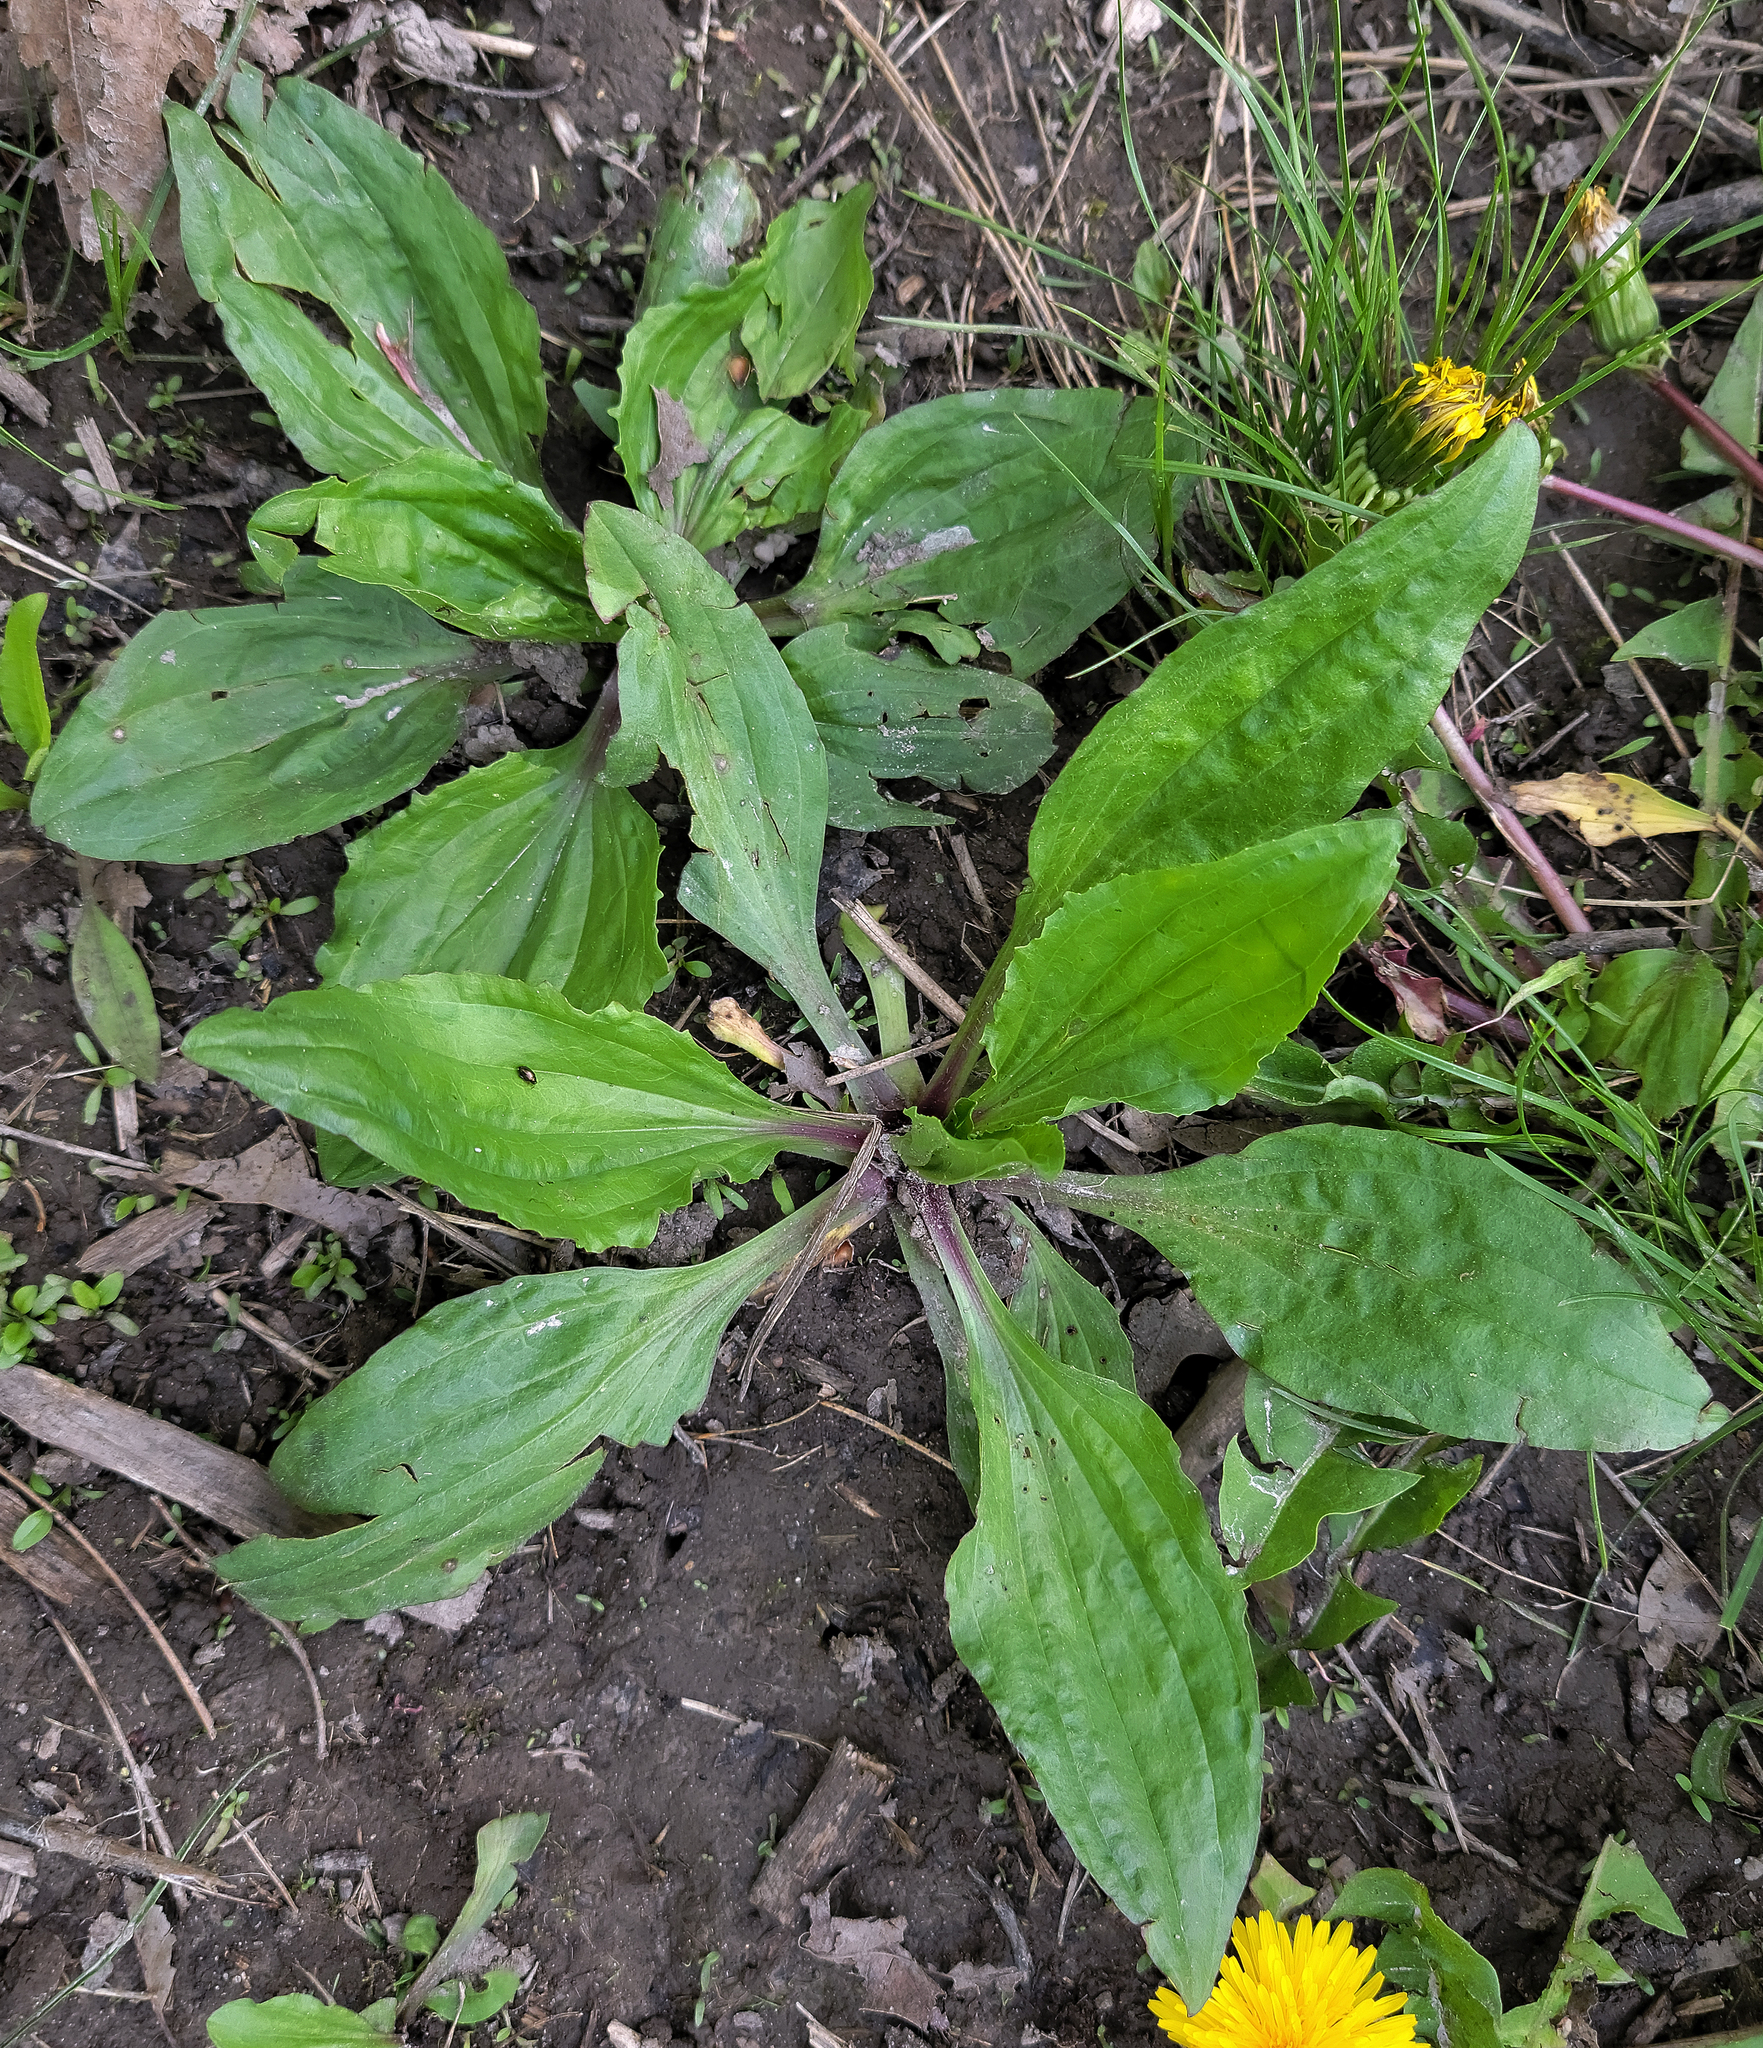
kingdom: Plantae
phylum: Tracheophyta
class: Magnoliopsida
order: Lamiales
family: Plantaginaceae
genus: Plantago
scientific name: Plantago rugelii
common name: American plantain
